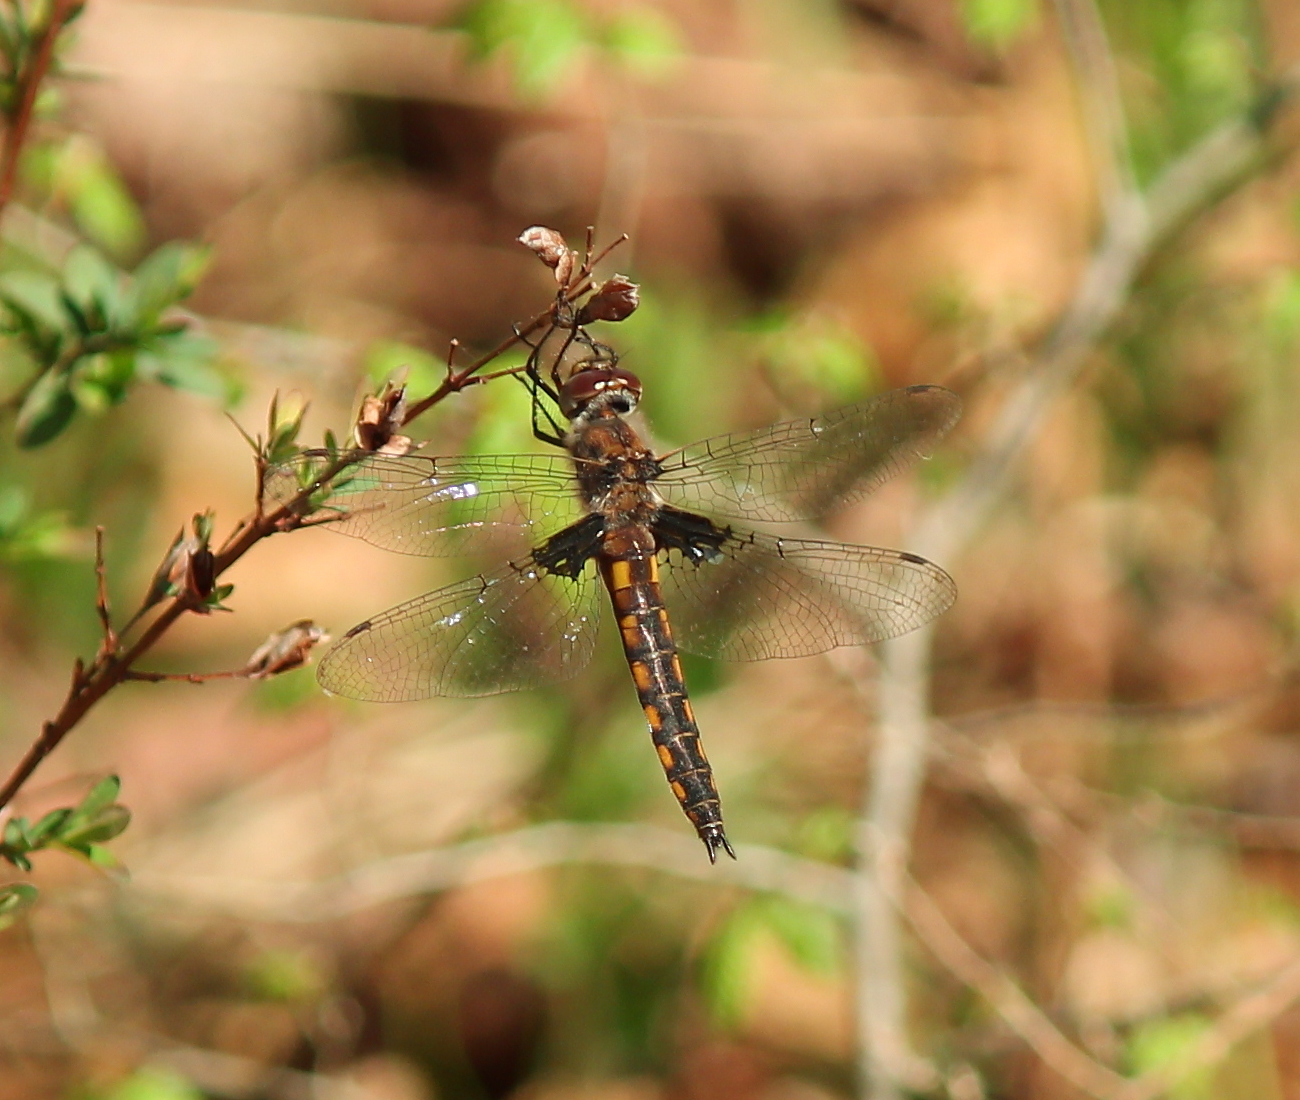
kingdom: Animalia
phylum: Arthropoda
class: Insecta
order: Odonata
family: Corduliidae
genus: Epitheca
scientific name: Epitheca cynosura
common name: Common baskettail
